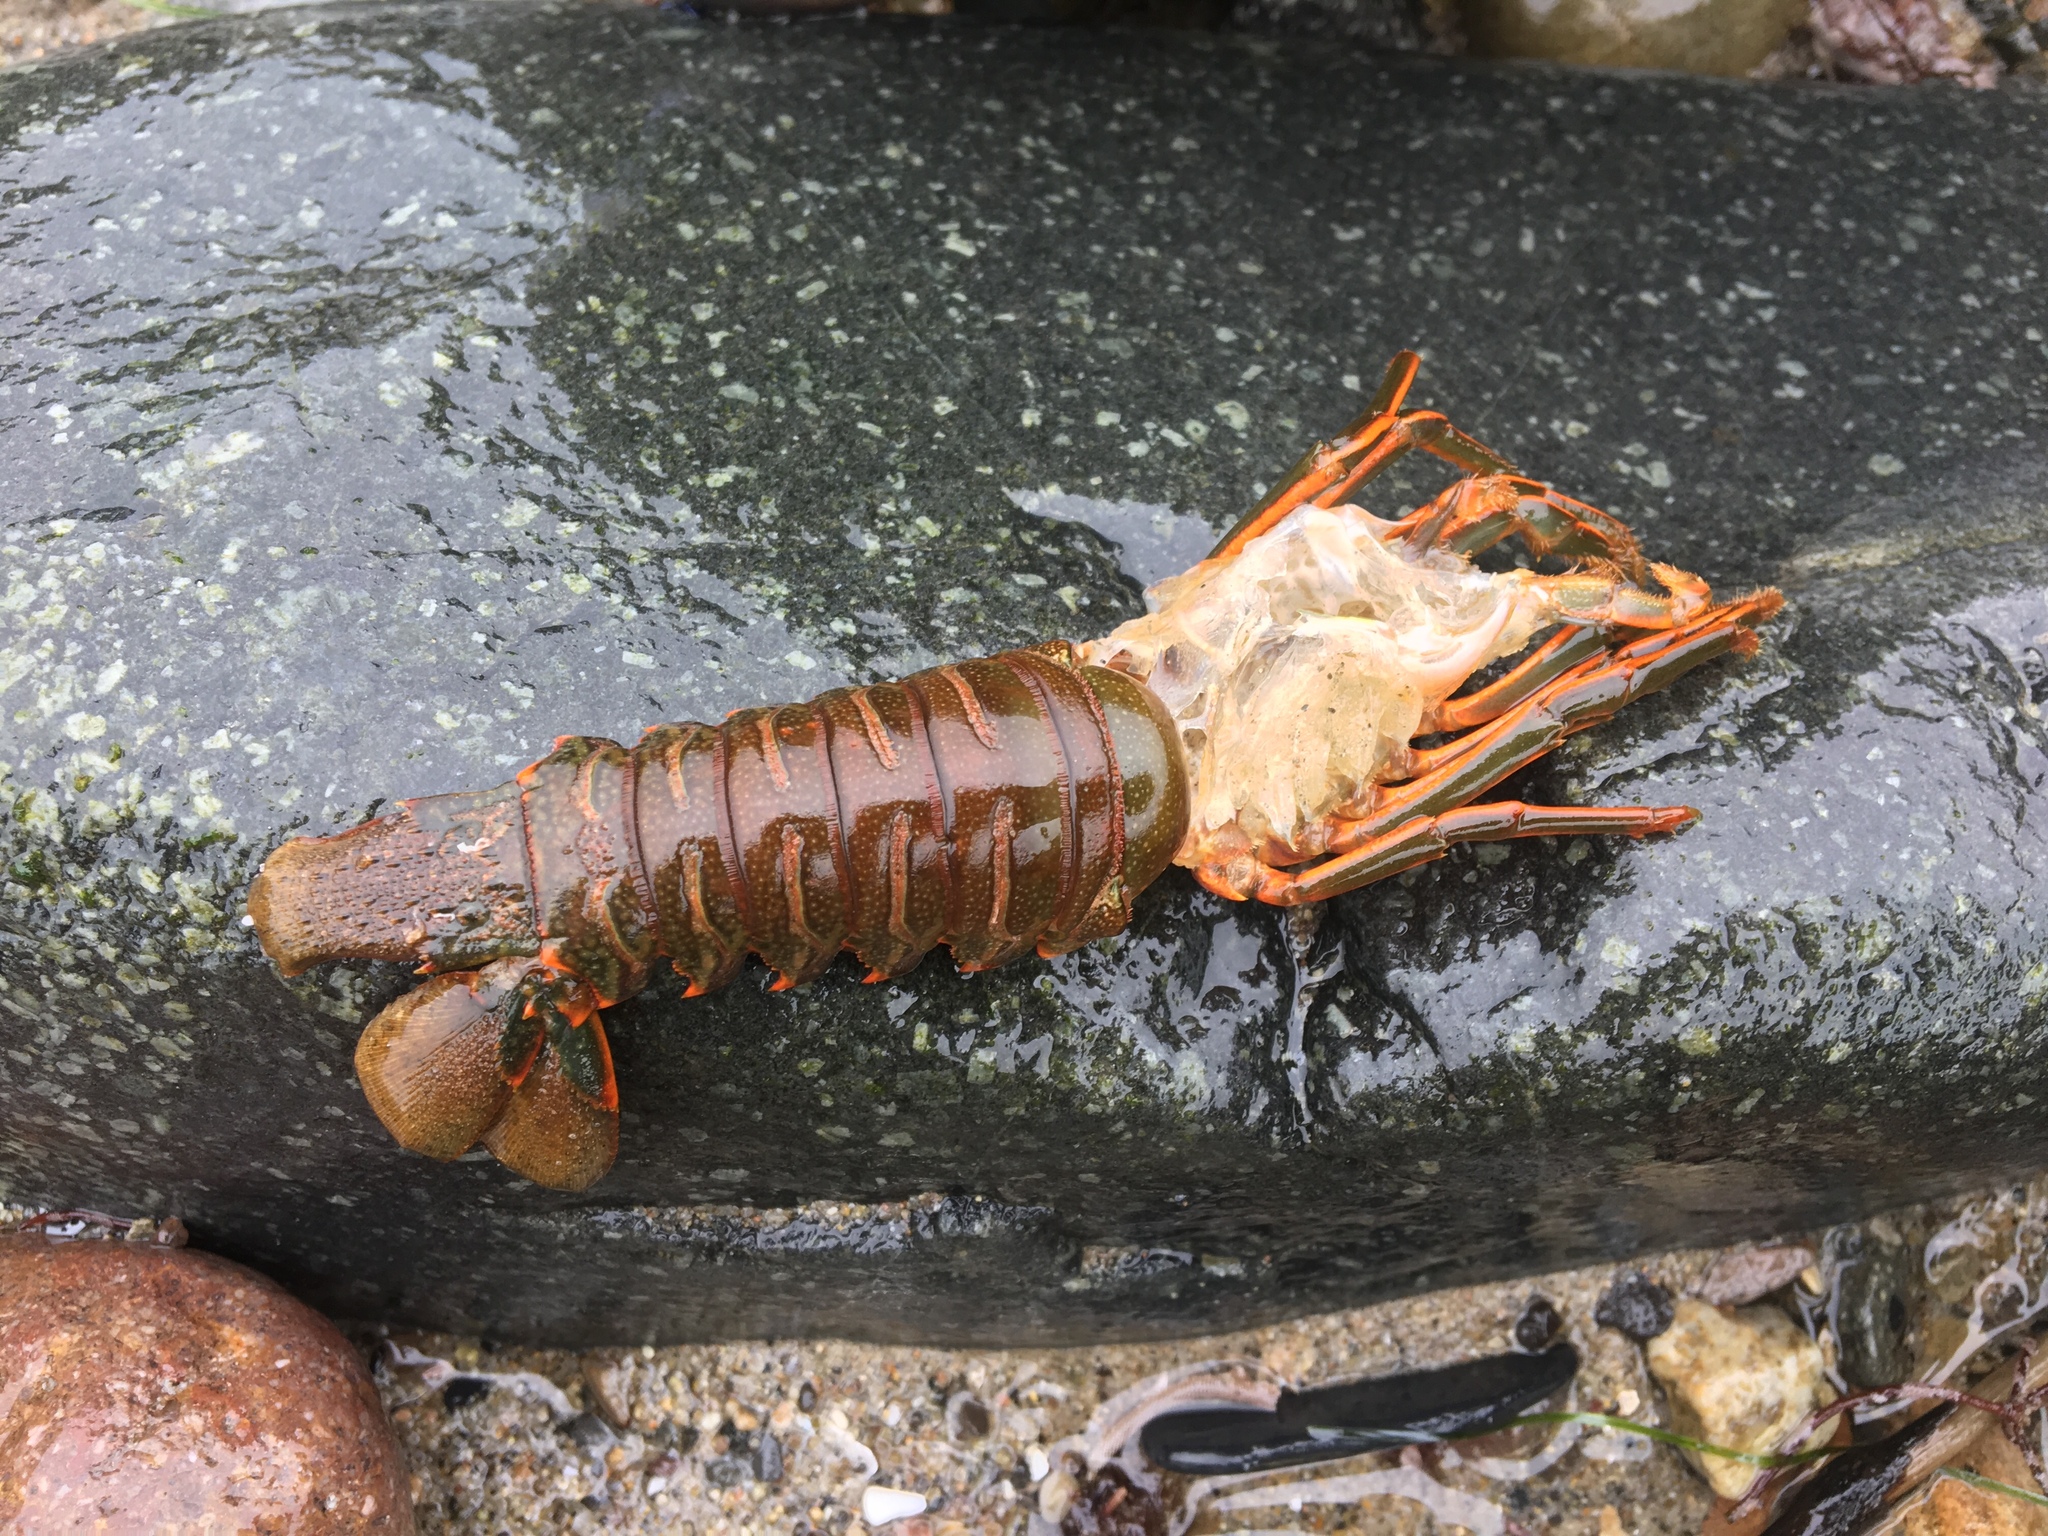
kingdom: Animalia
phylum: Arthropoda
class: Malacostraca
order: Decapoda
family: Palinuridae
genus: Panulirus
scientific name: Panulirus interruptus
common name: California spiny lobster
